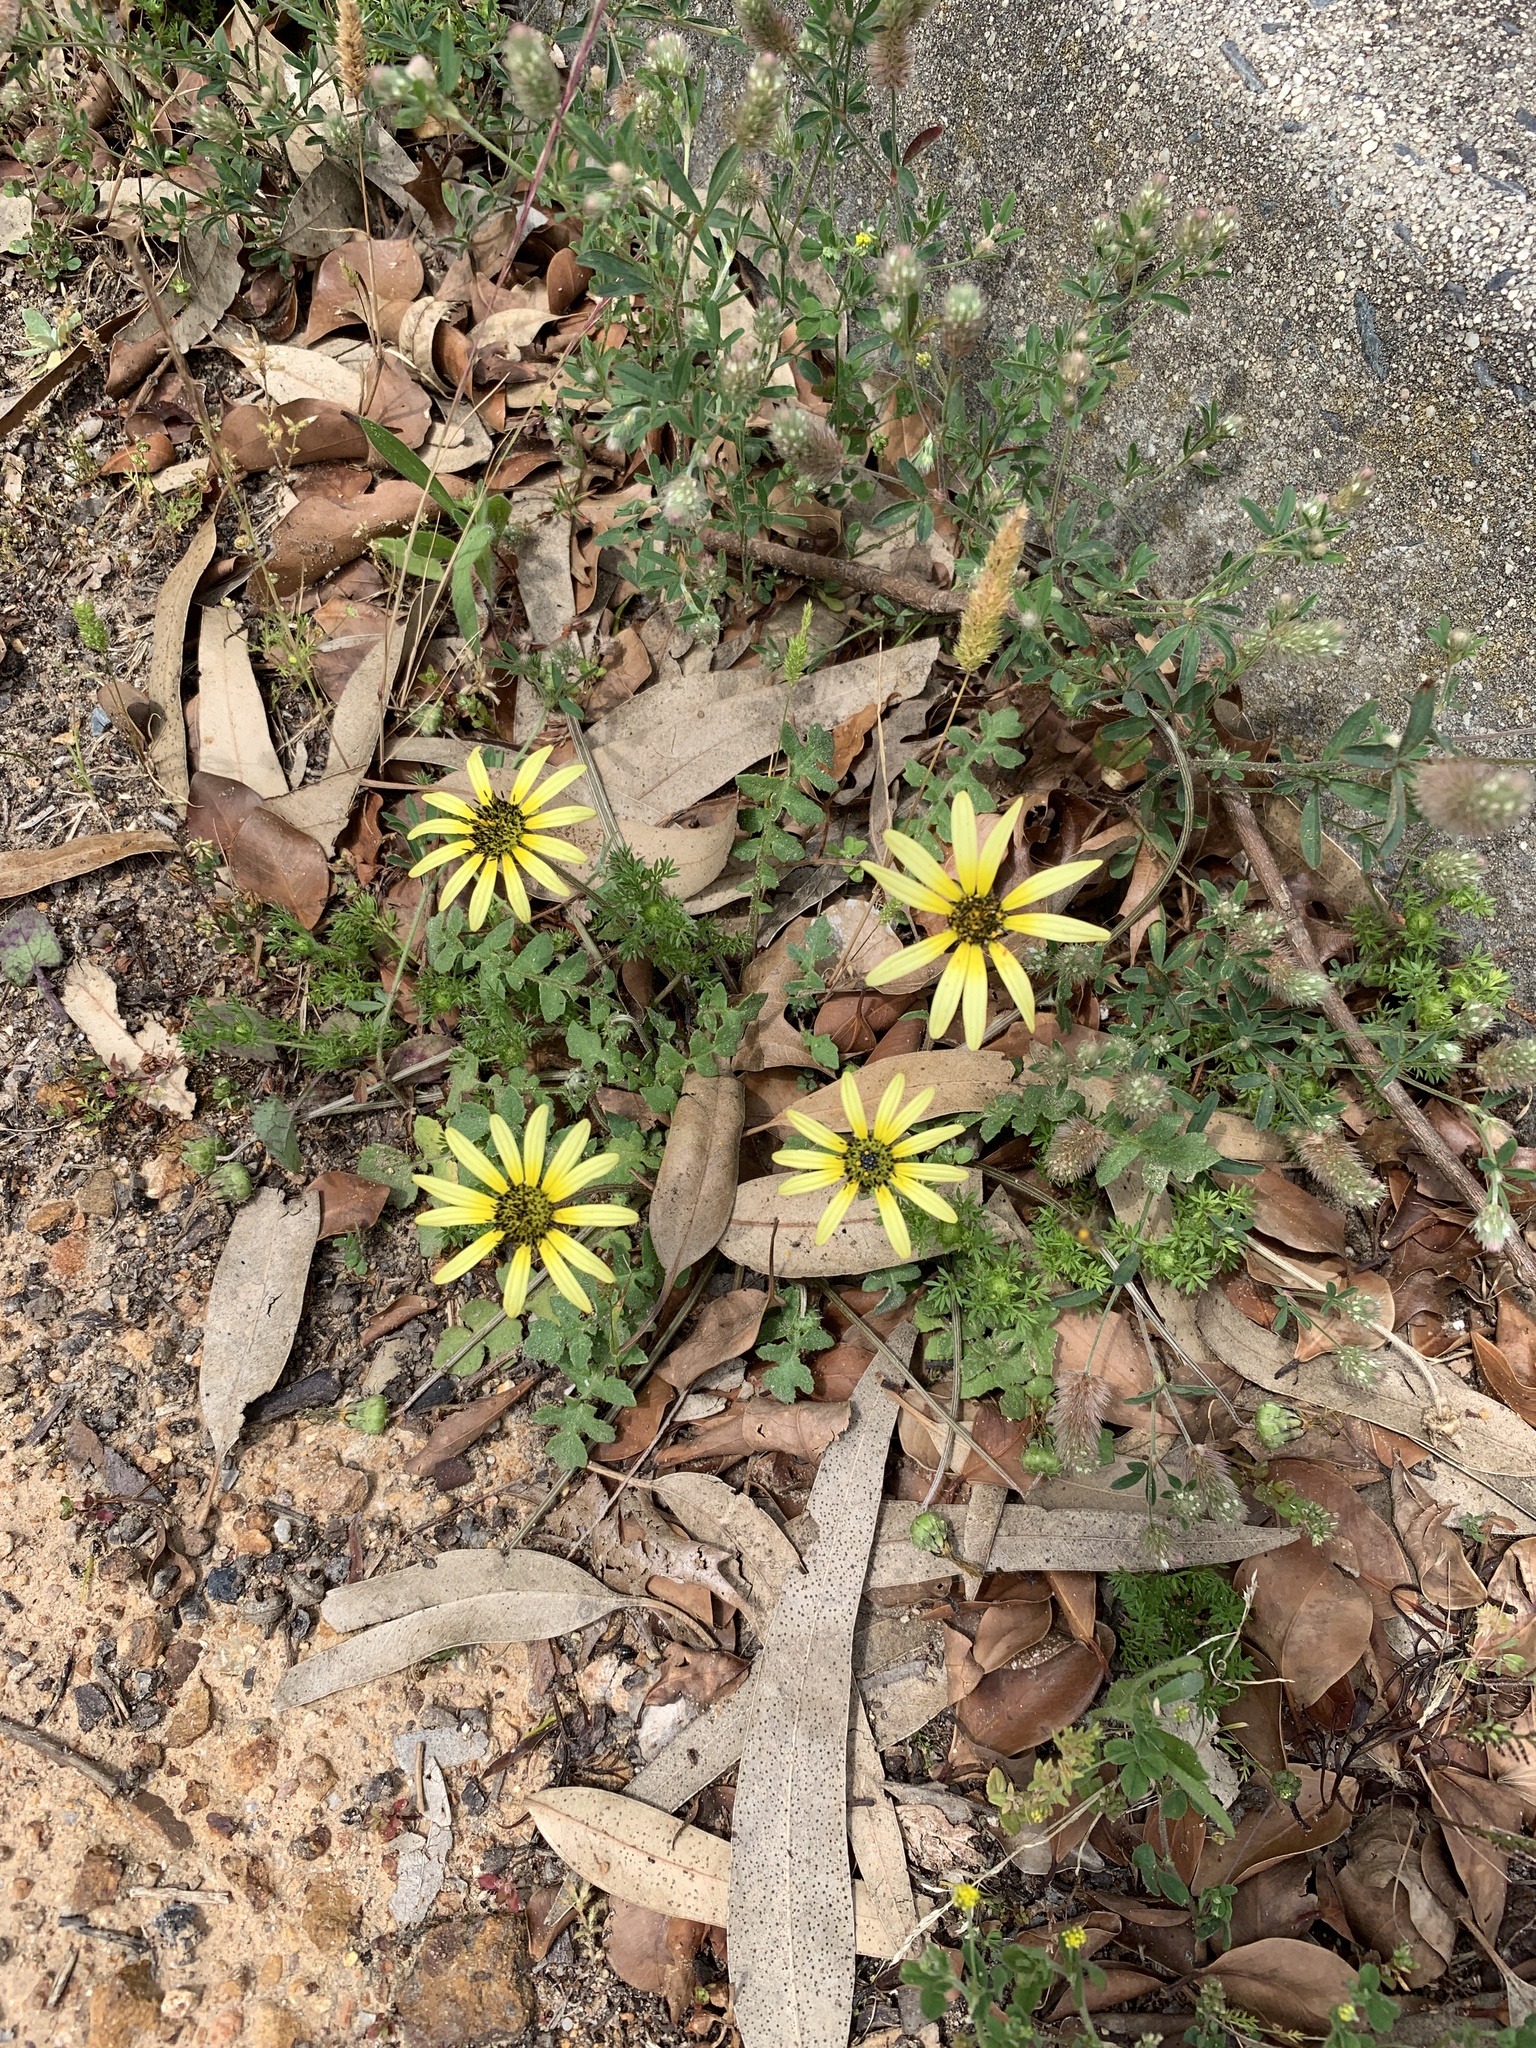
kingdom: Plantae
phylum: Tracheophyta
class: Magnoliopsida
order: Asterales
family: Asteraceae
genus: Arctotheca
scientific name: Arctotheca calendula
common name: Capeweed
